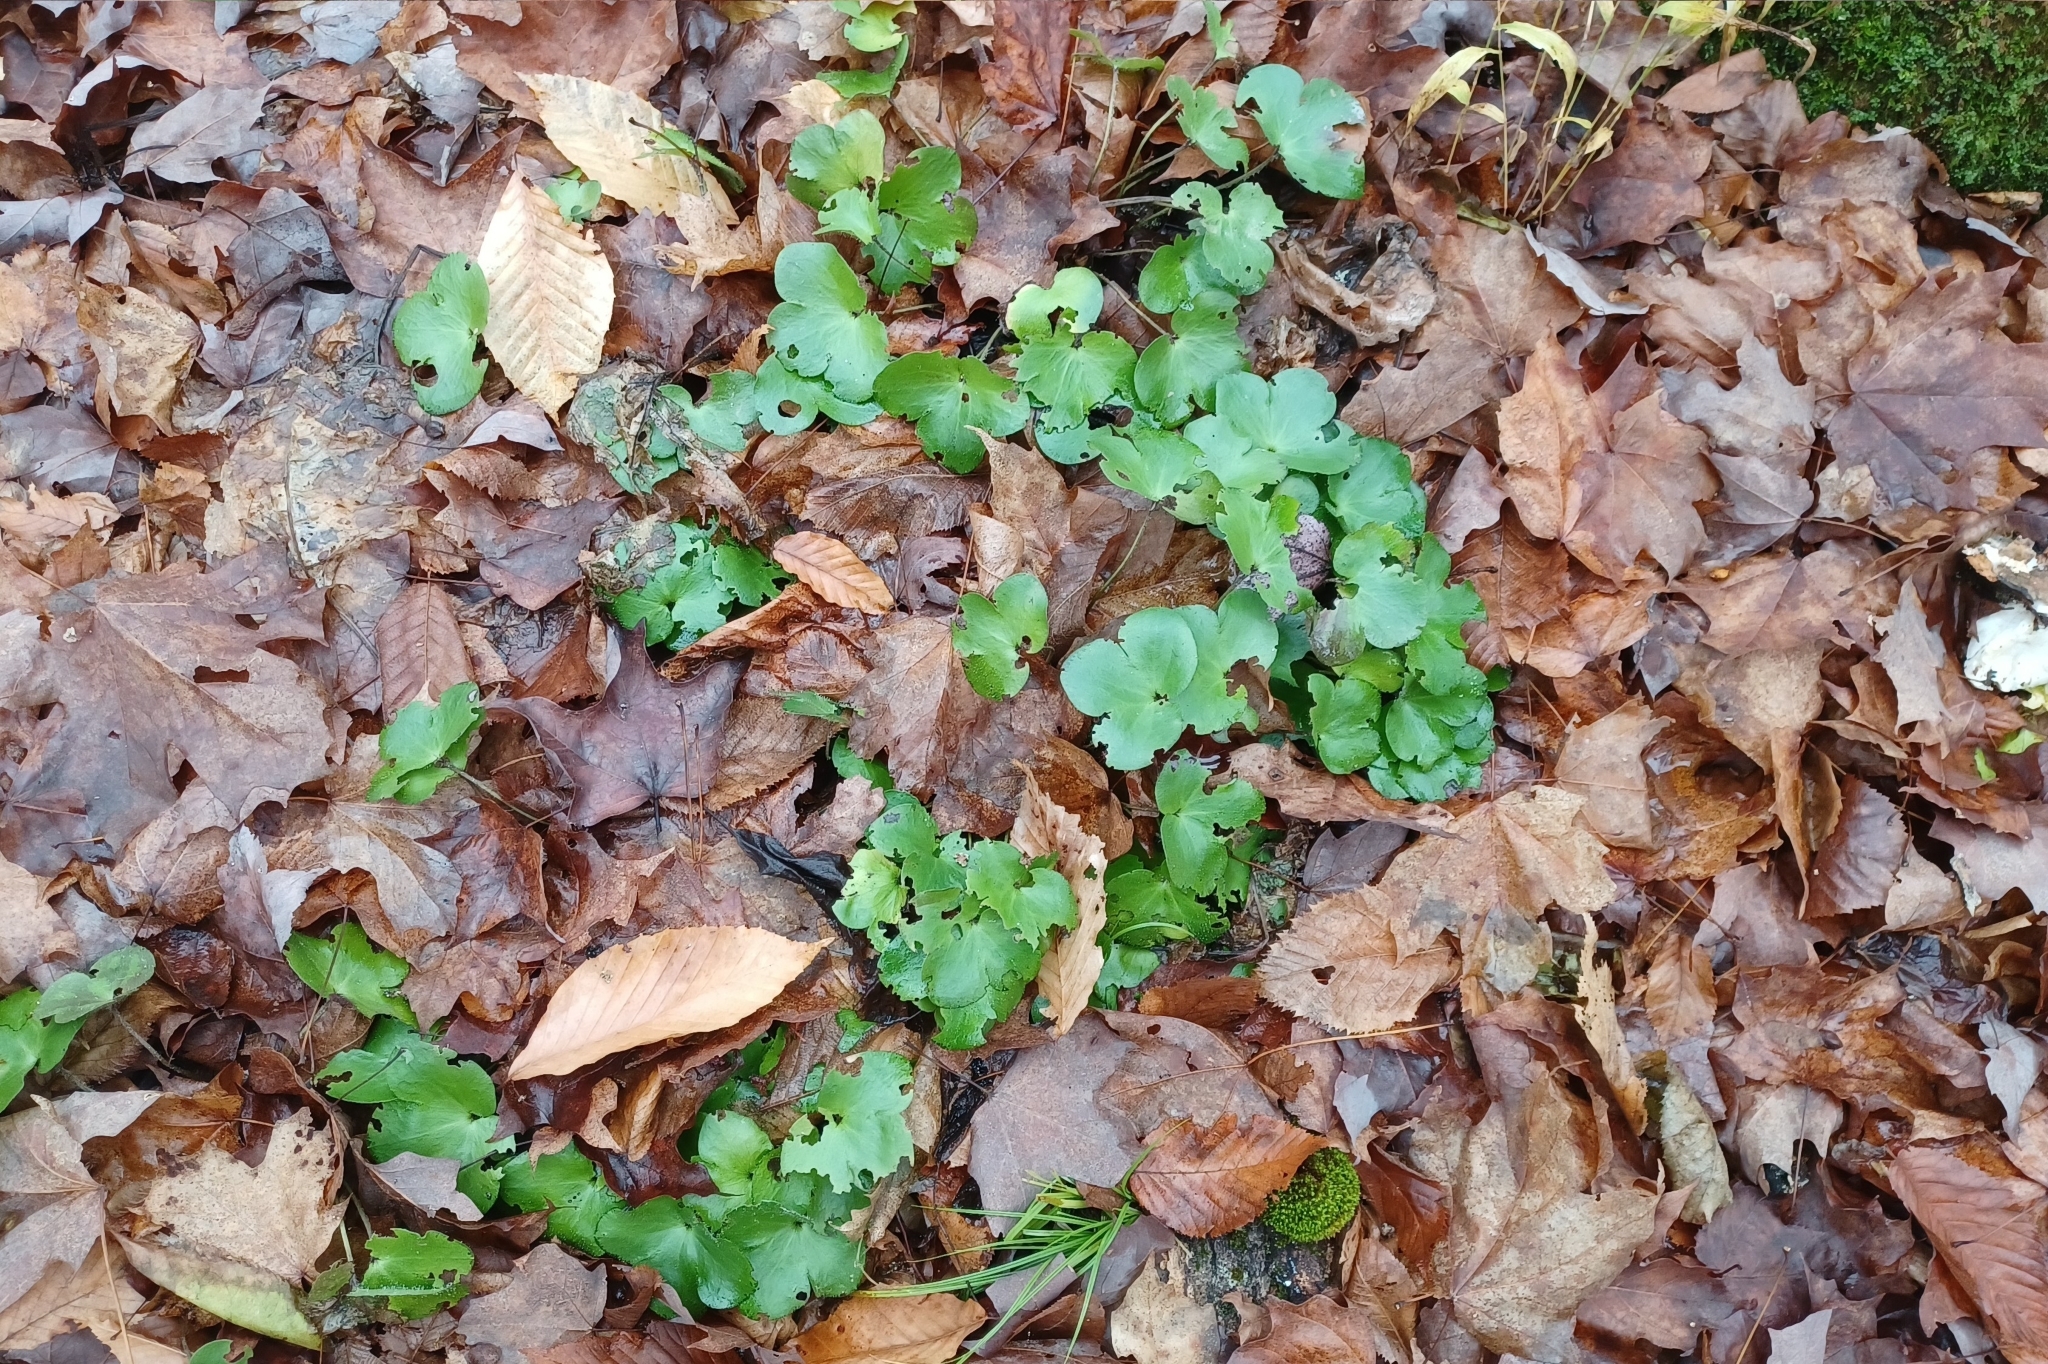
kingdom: Plantae
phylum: Tracheophyta
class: Magnoliopsida
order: Ranunculales
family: Ranunculaceae
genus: Hepatica
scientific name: Hepatica americana
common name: American hepatica
